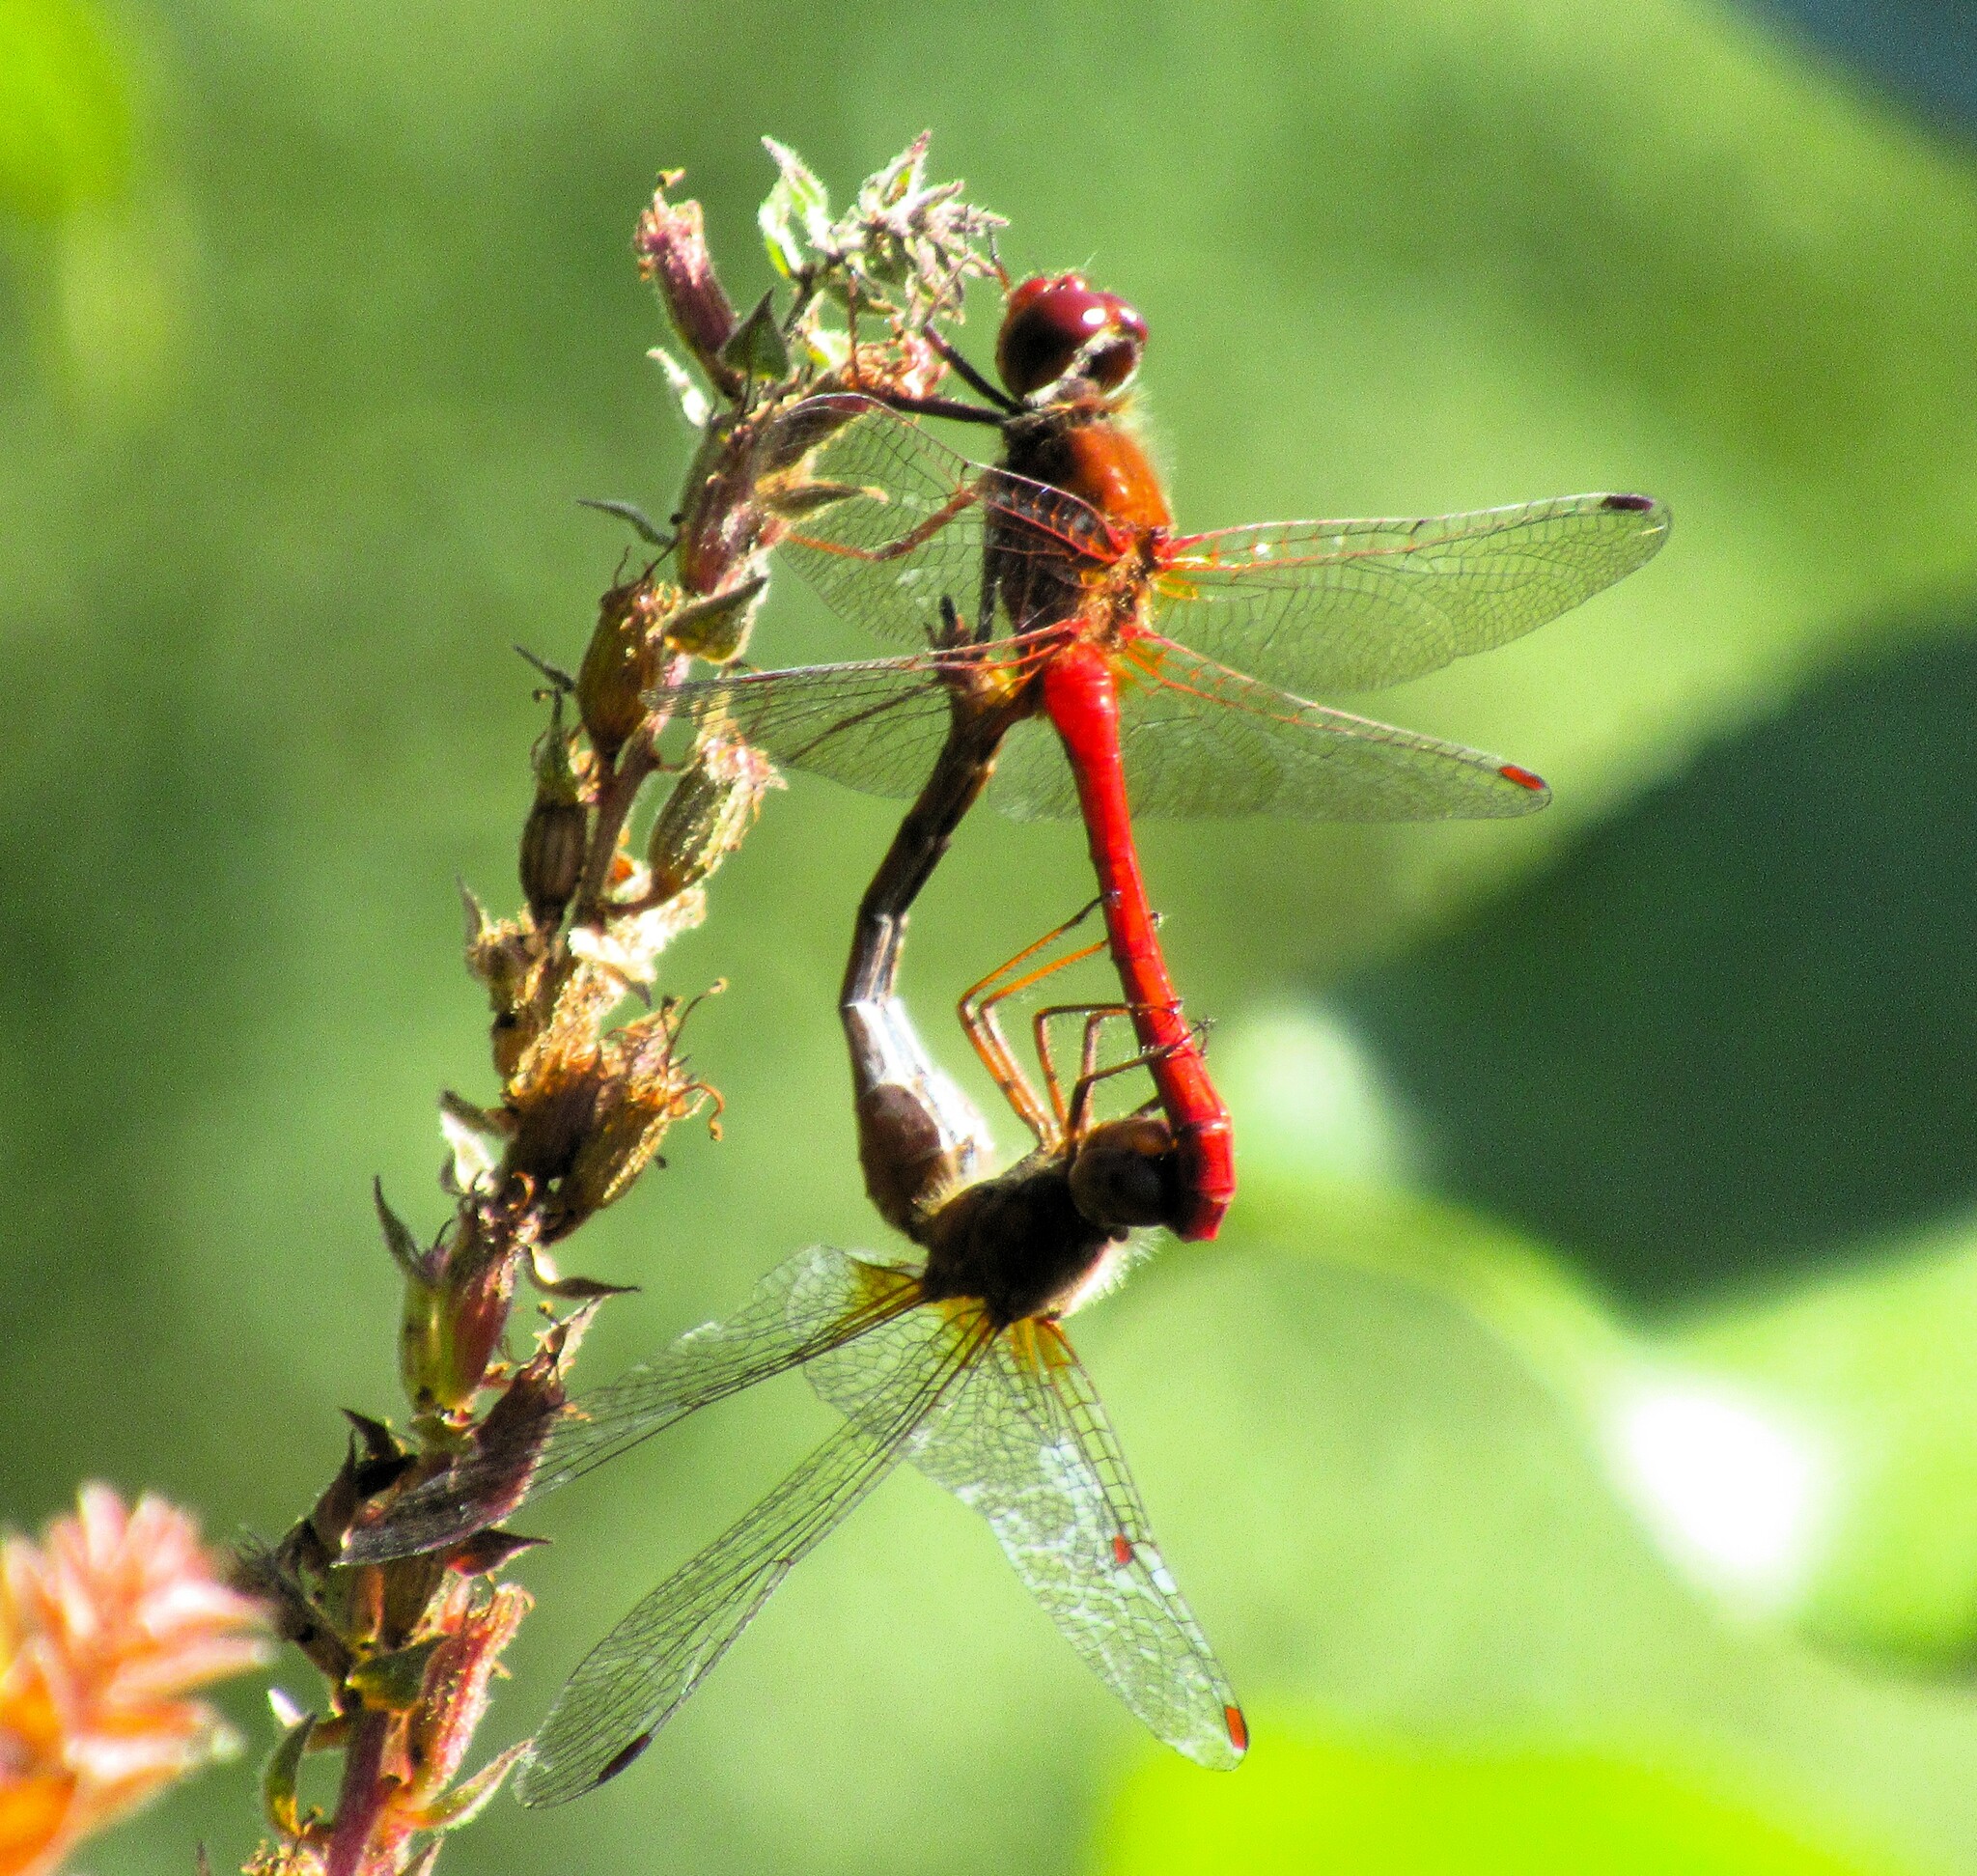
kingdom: Animalia
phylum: Arthropoda
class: Insecta
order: Odonata
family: Libellulidae
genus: Sympetrum
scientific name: Sympetrum vicinum
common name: Autumn meadowhawk
